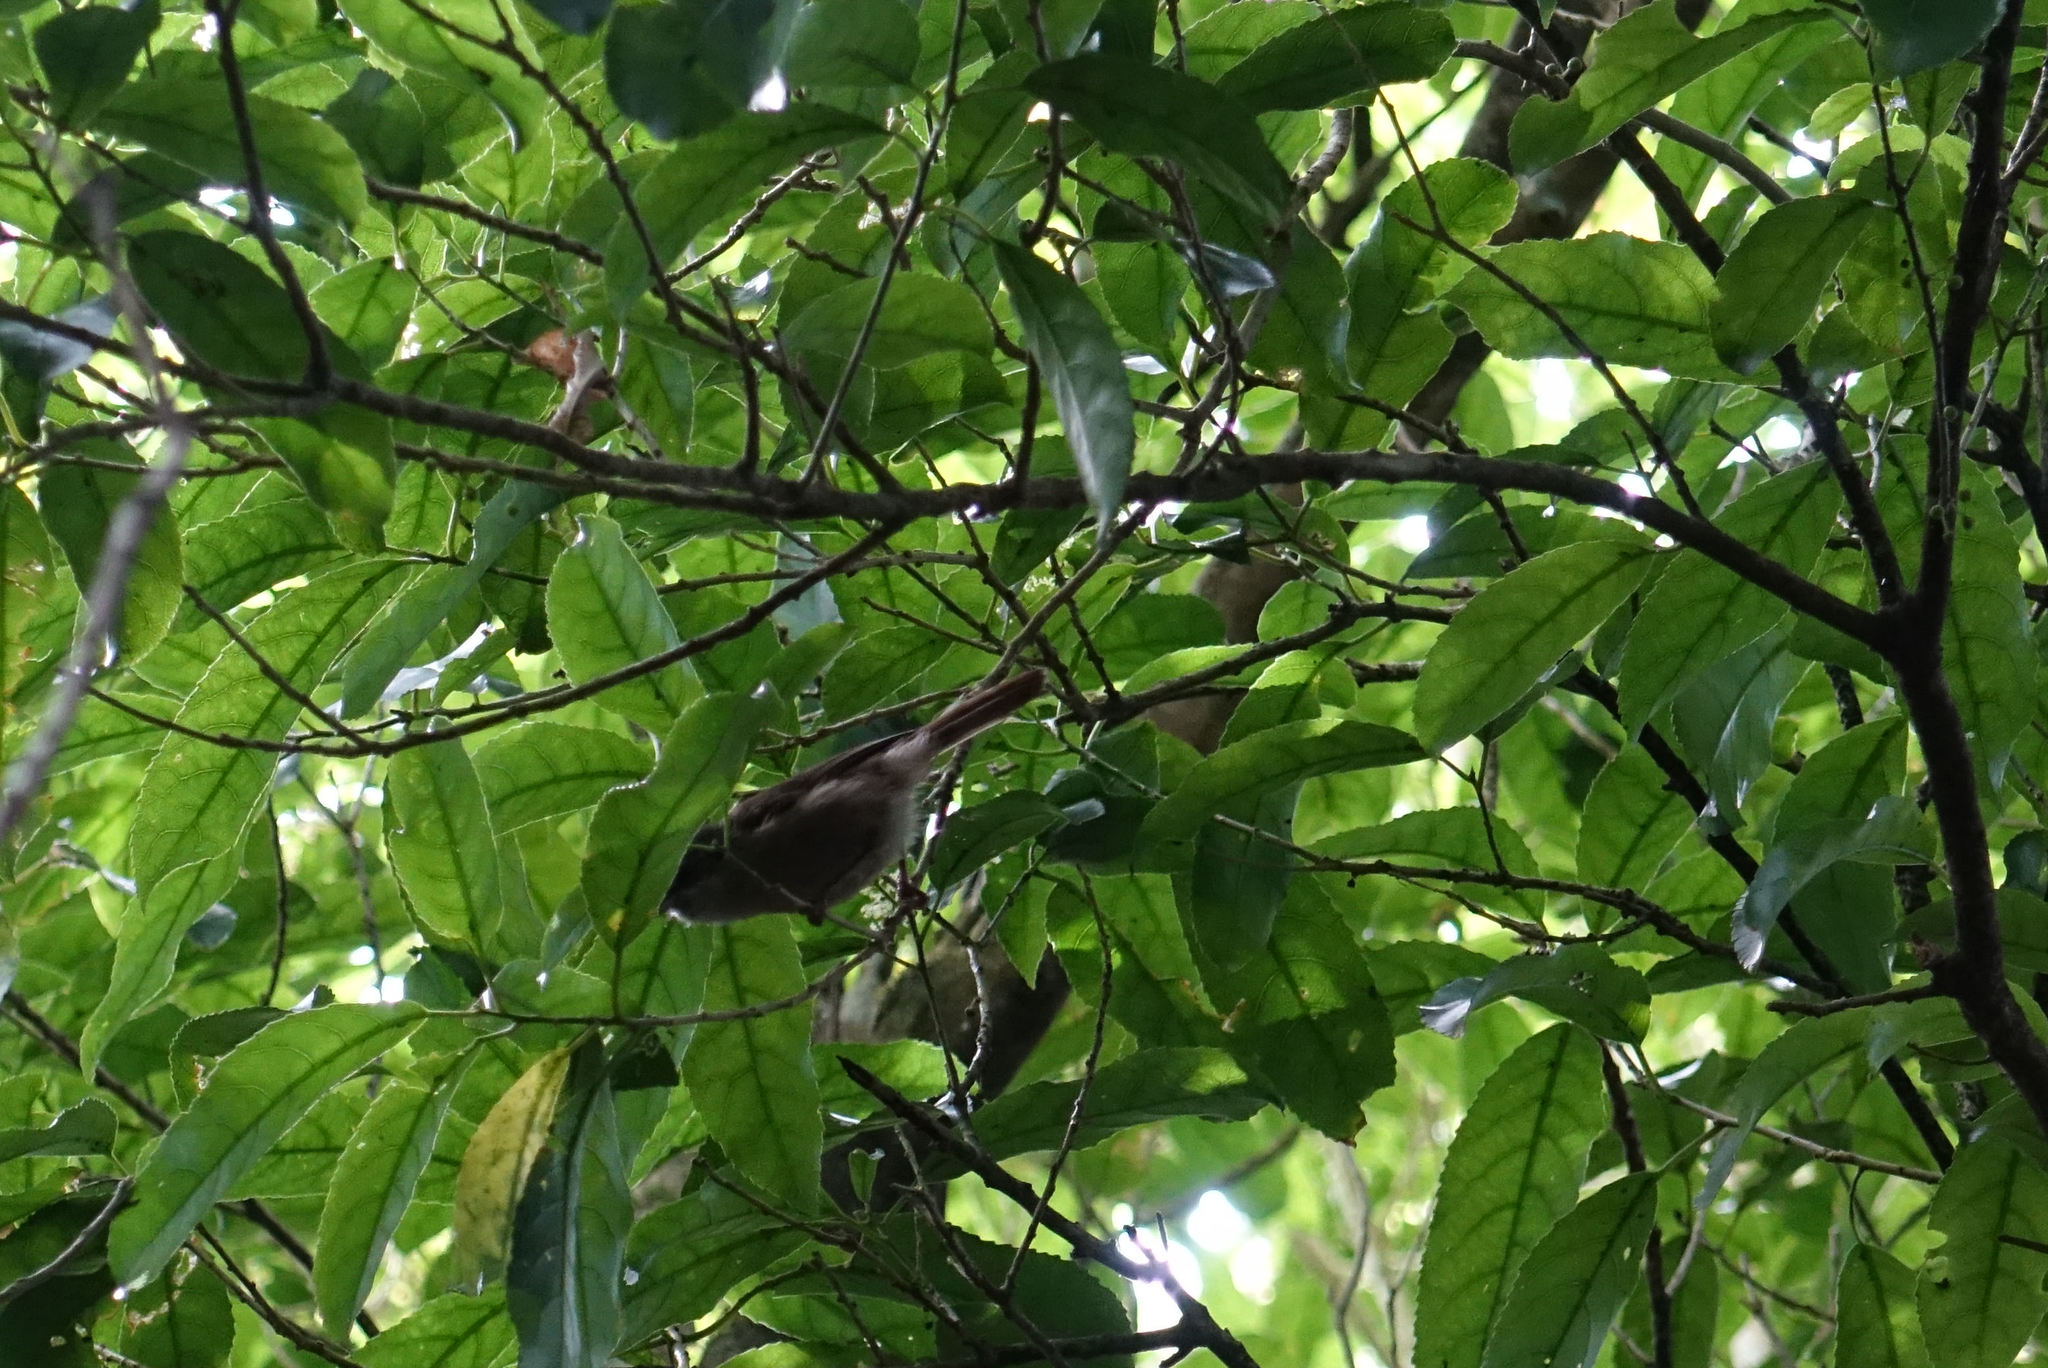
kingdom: Animalia
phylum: Chordata
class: Aves
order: Passeriformes
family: Acanthizidae
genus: Finschia
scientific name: Finschia novaeseelandiae
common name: Pipipi
